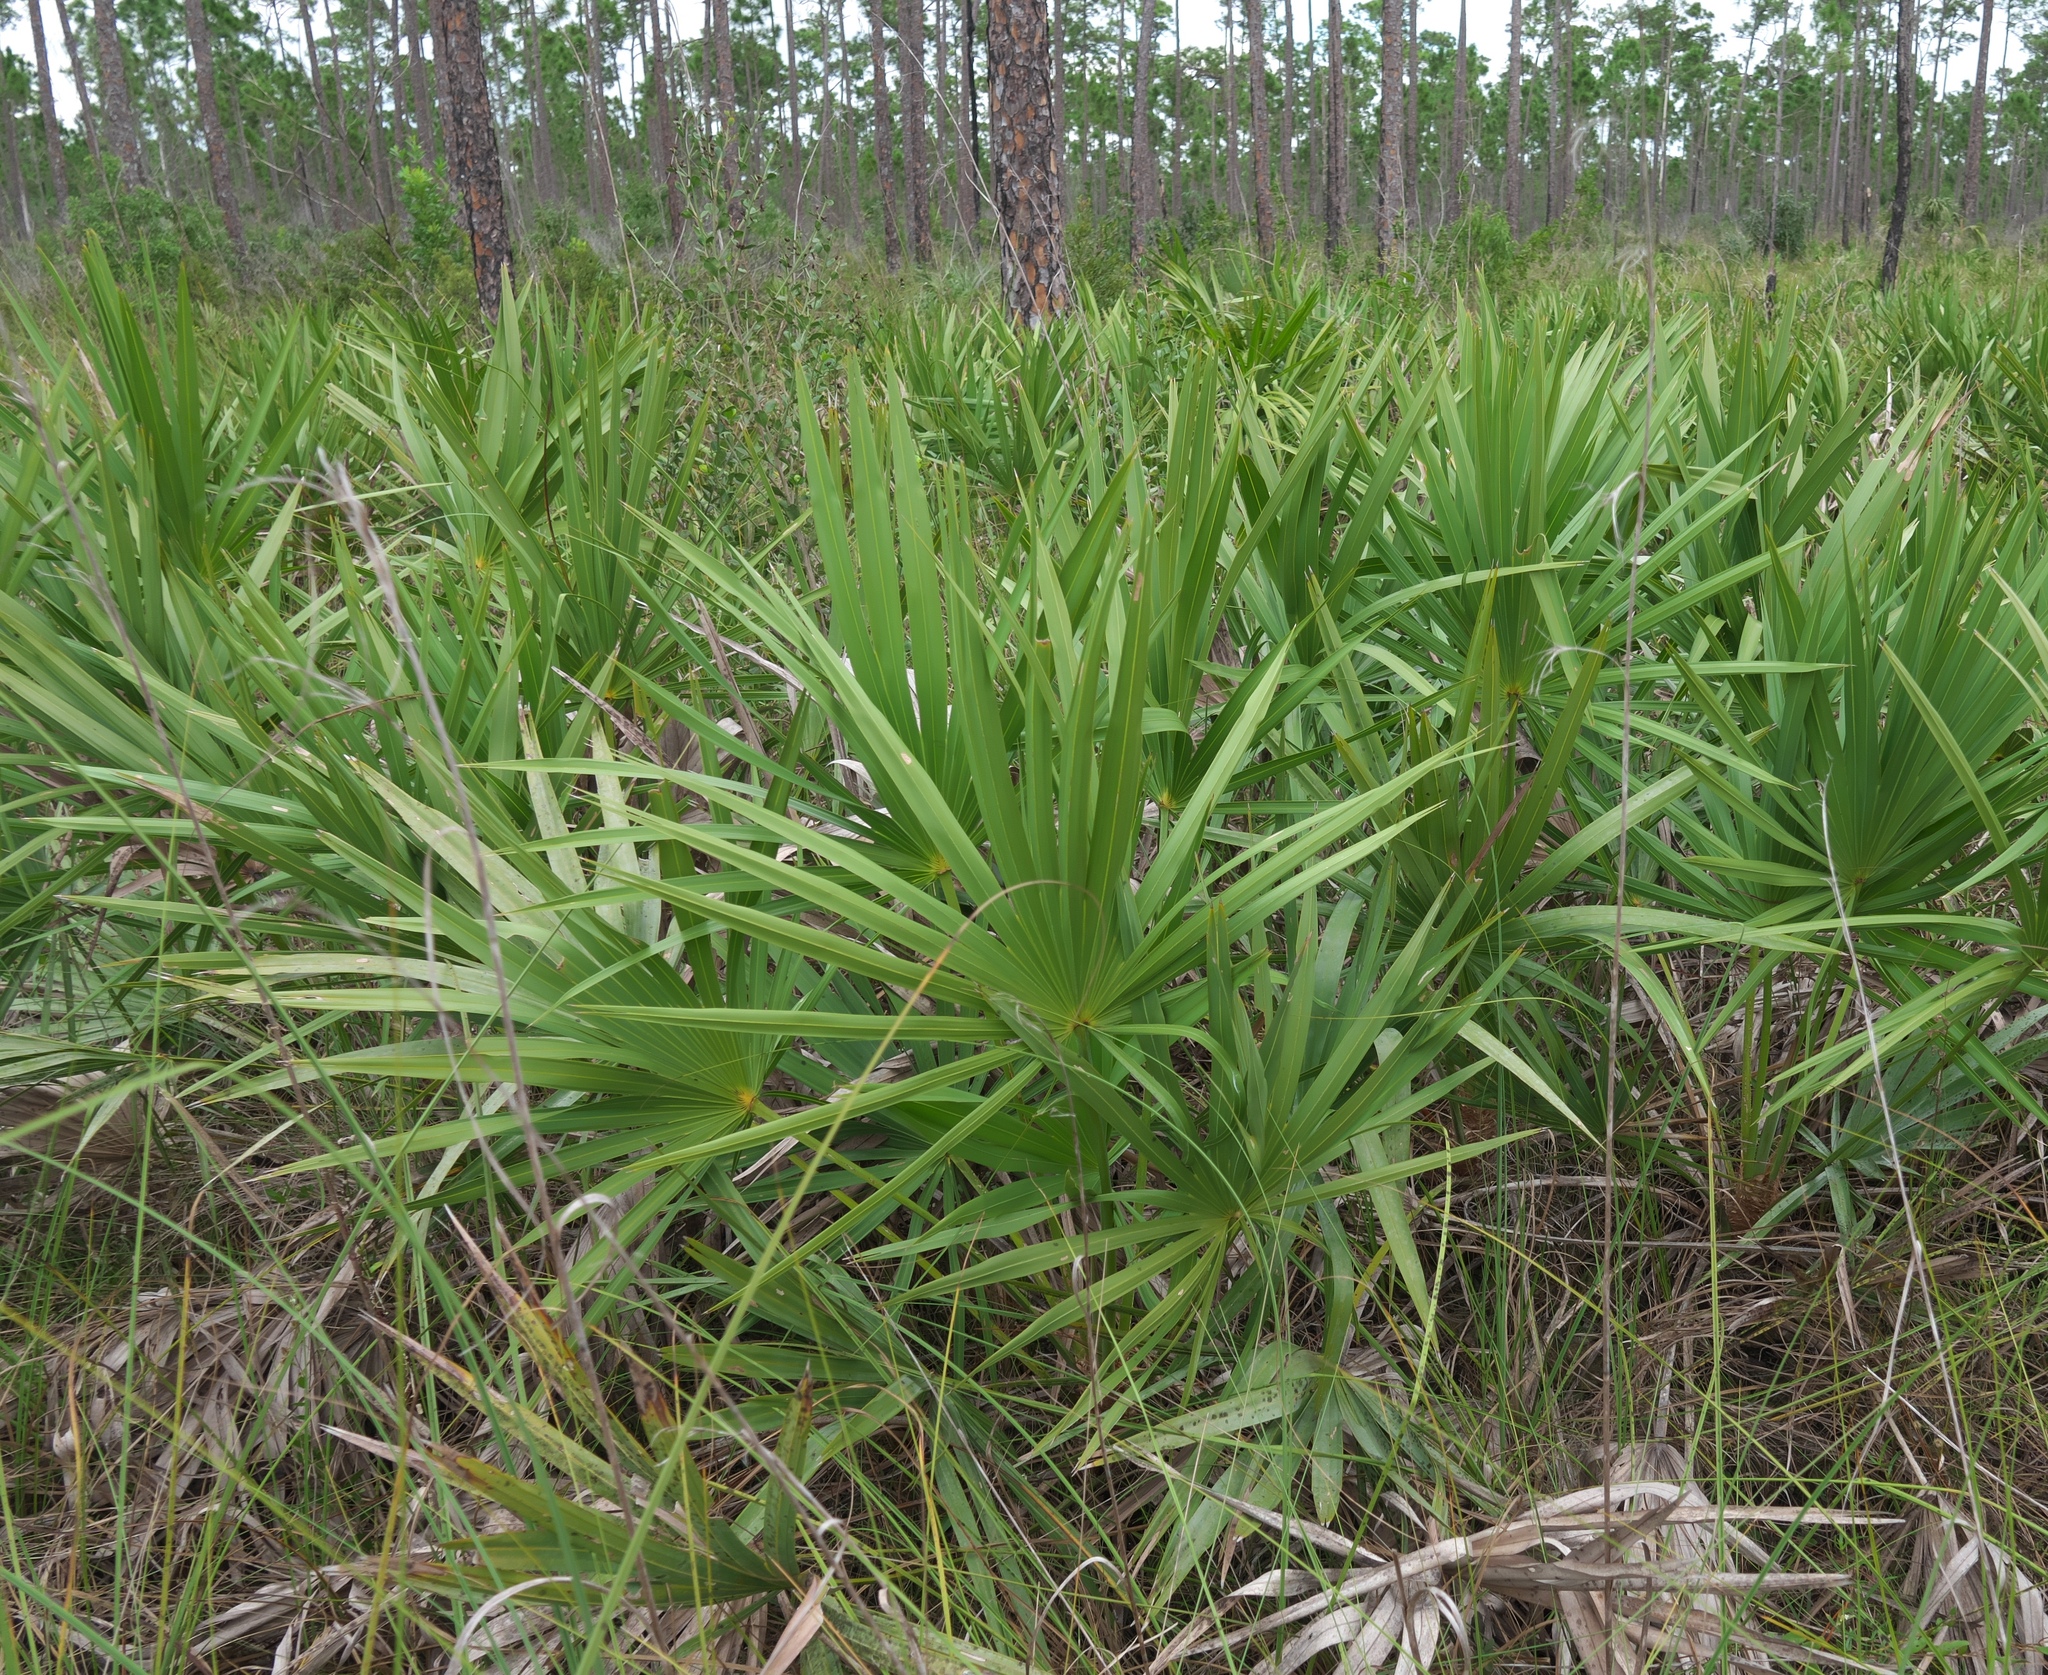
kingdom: Plantae
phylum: Tracheophyta
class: Liliopsida
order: Arecales
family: Arecaceae
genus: Serenoa
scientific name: Serenoa repens
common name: Saw-palmetto
